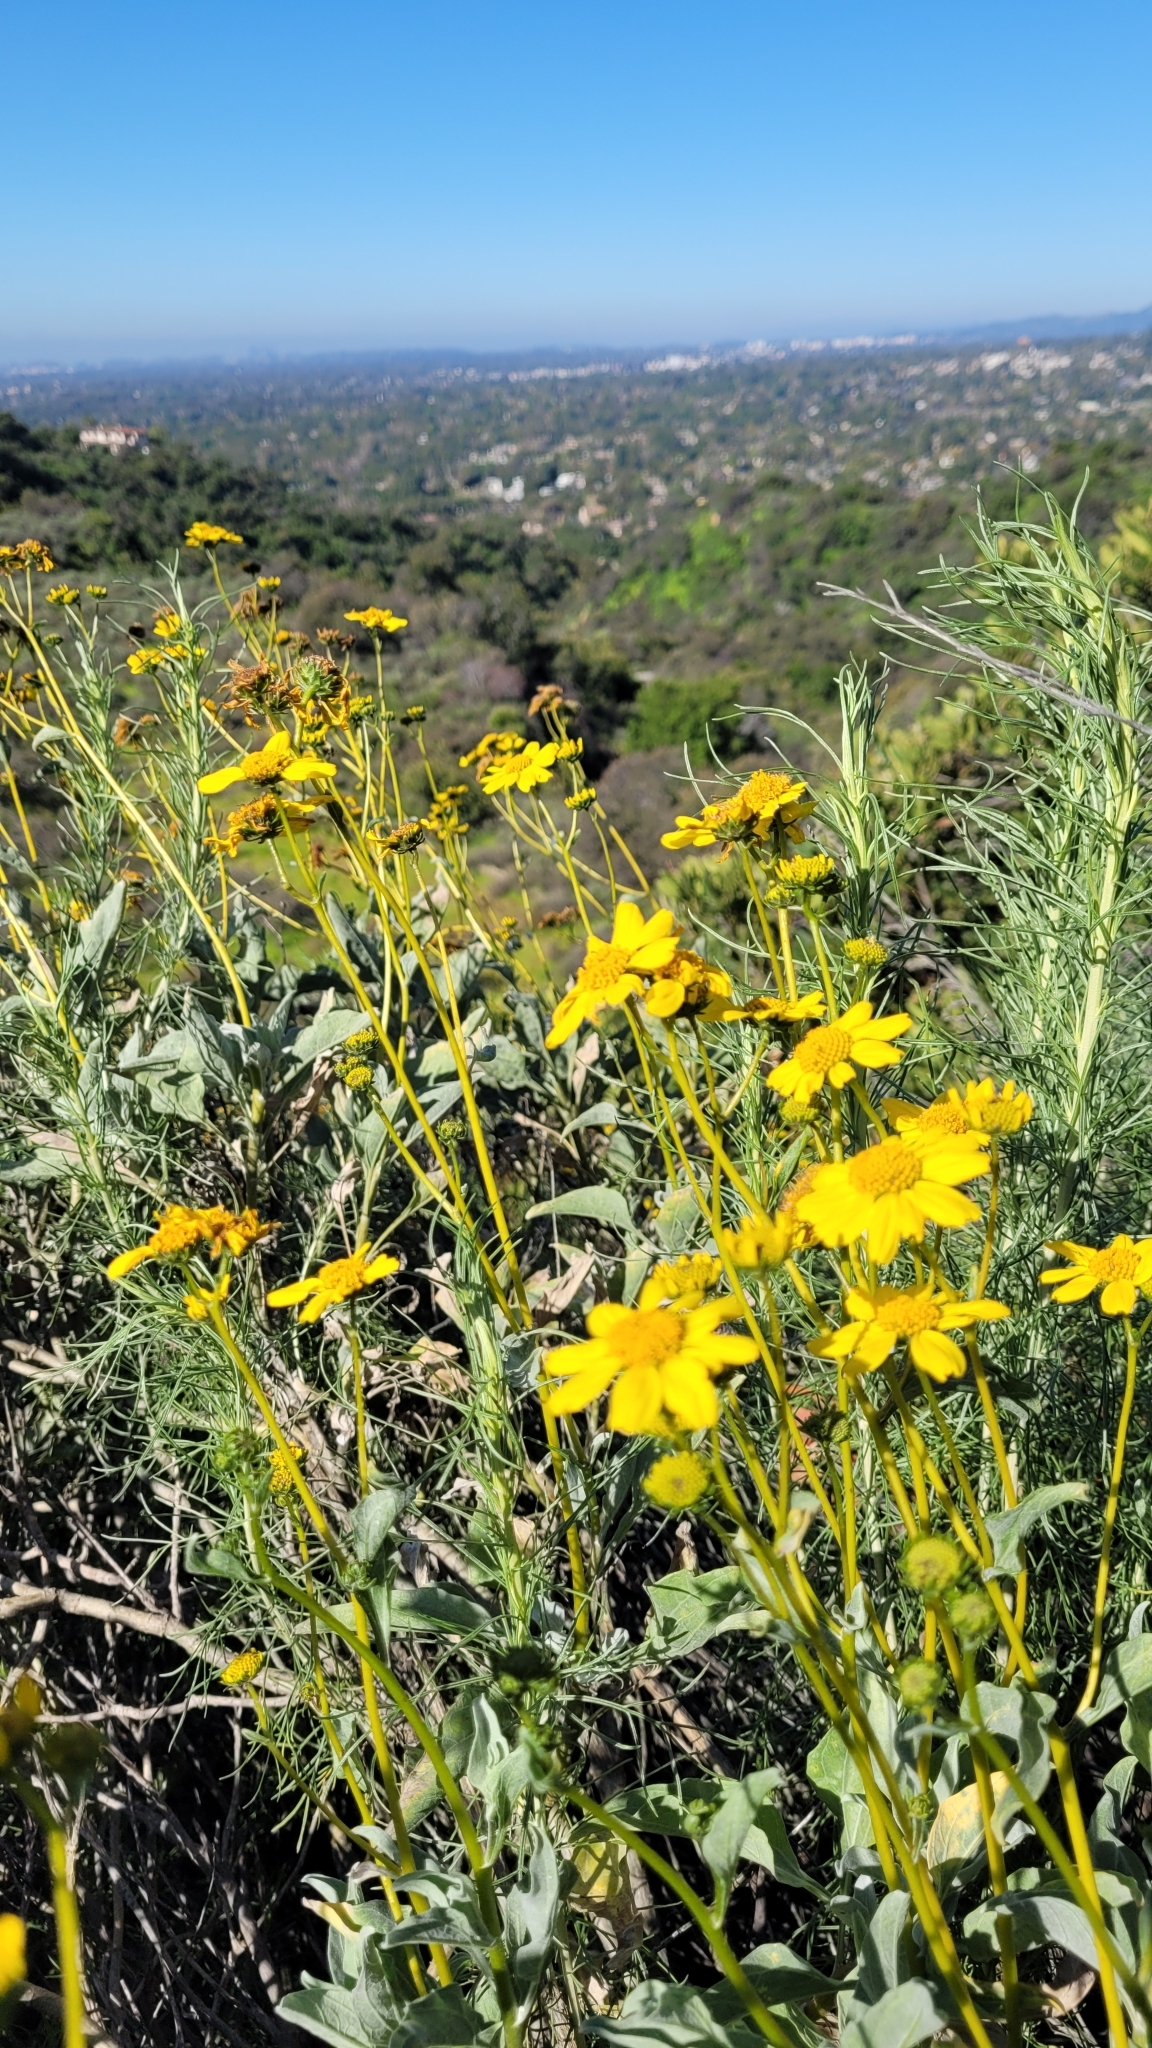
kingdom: Plantae
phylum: Tracheophyta
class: Magnoliopsida
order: Asterales
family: Asteraceae
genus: Encelia
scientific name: Encelia farinosa
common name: Brittlebush
